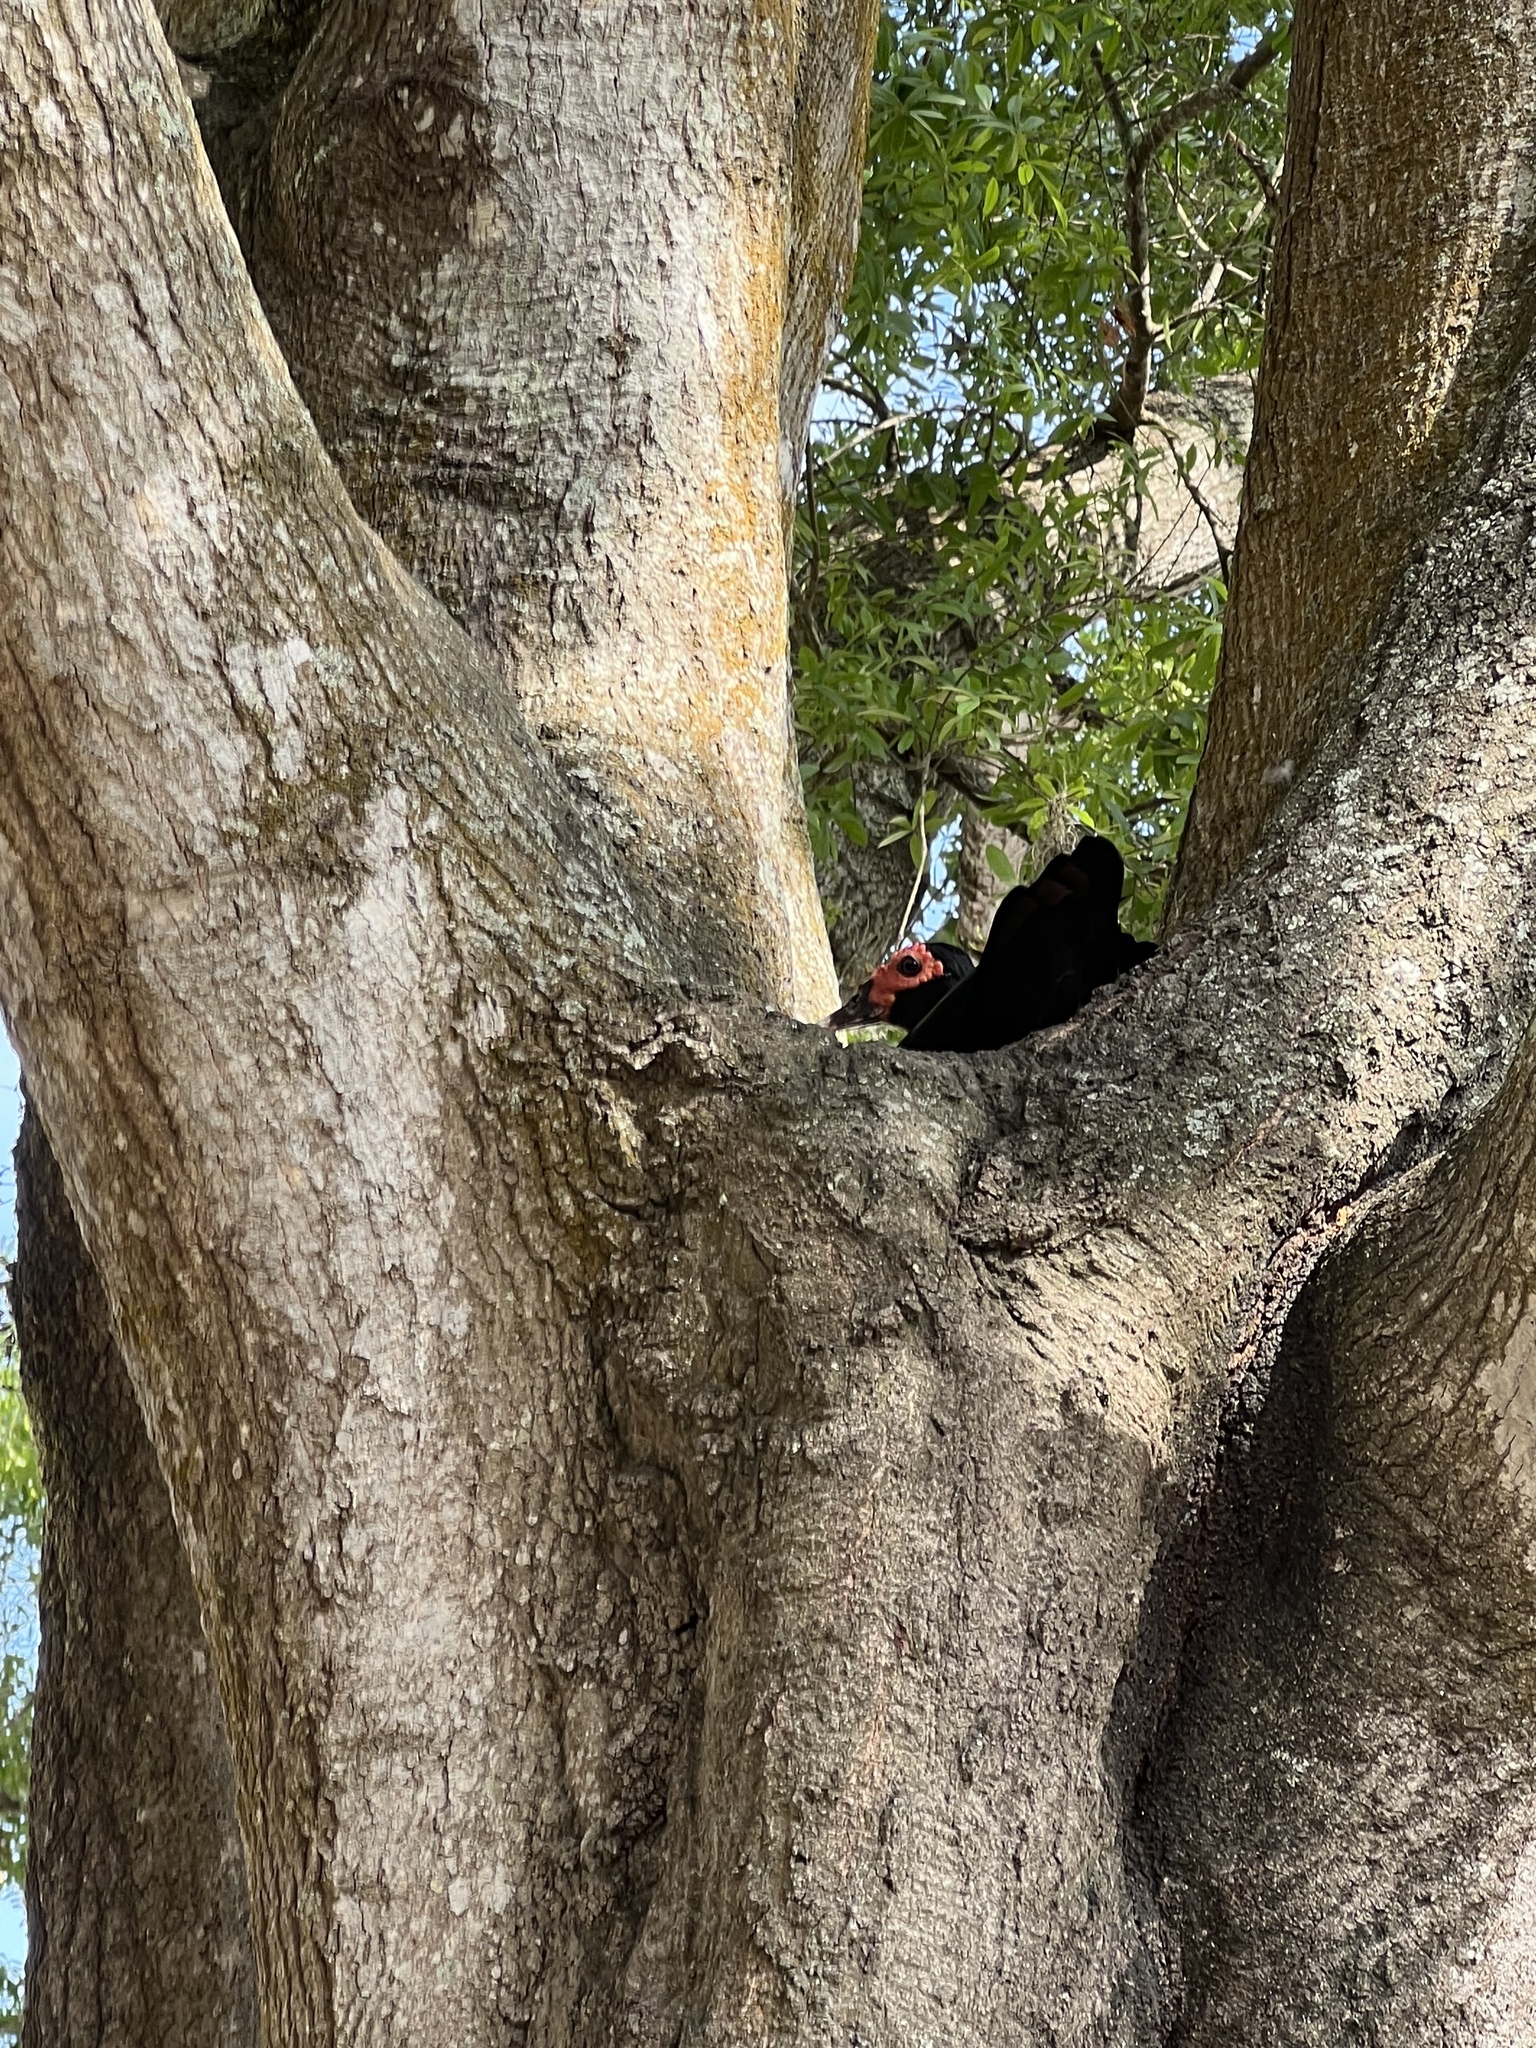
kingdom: Animalia
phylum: Chordata
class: Aves
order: Anseriformes
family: Anatidae
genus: Cairina
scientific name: Cairina moschata
